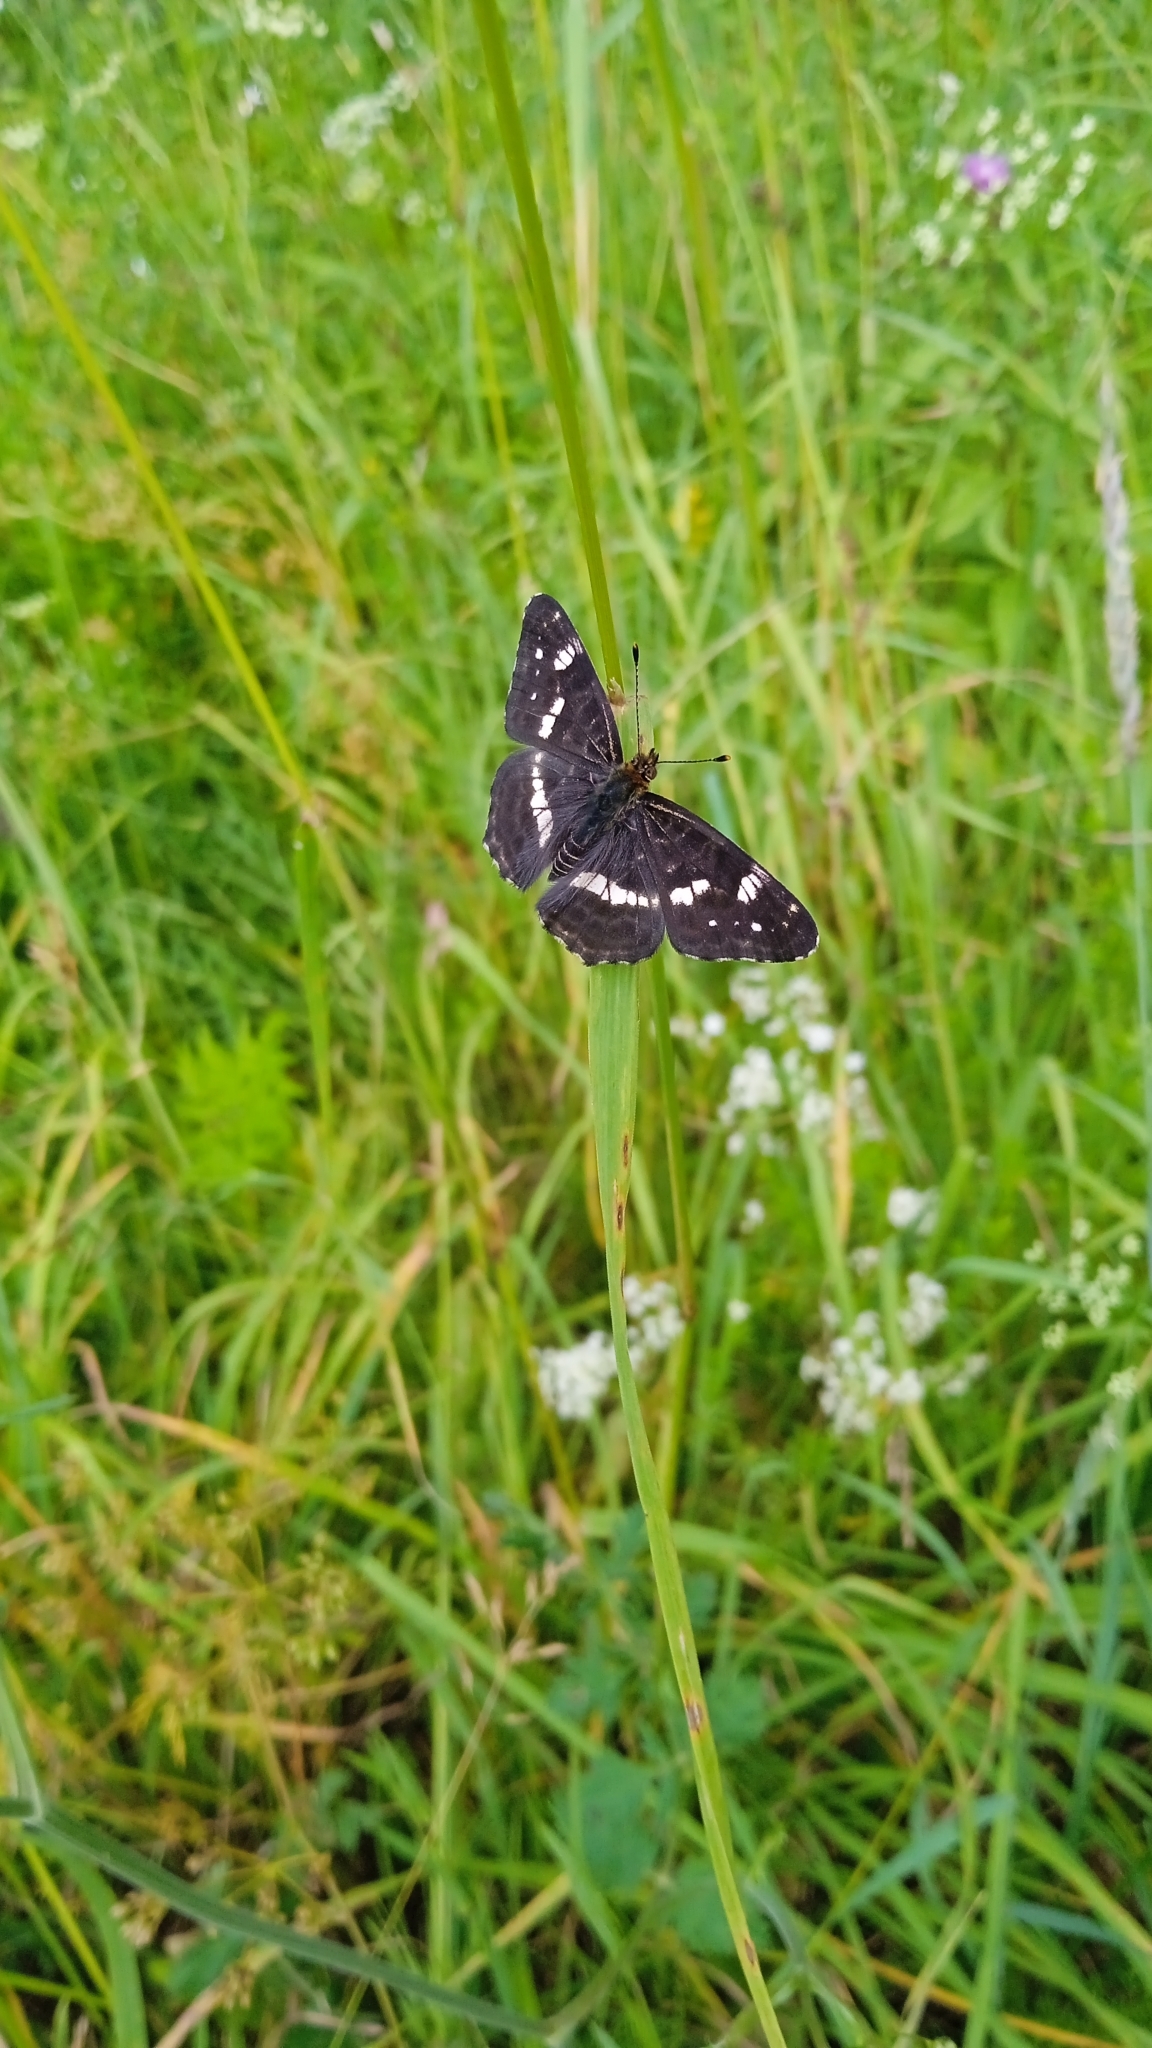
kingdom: Animalia
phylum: Arthropoda
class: Insecta
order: Lepidoptera
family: Nymphalidae
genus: Araschnia
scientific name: Araschnia levana
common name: Map butterfly
